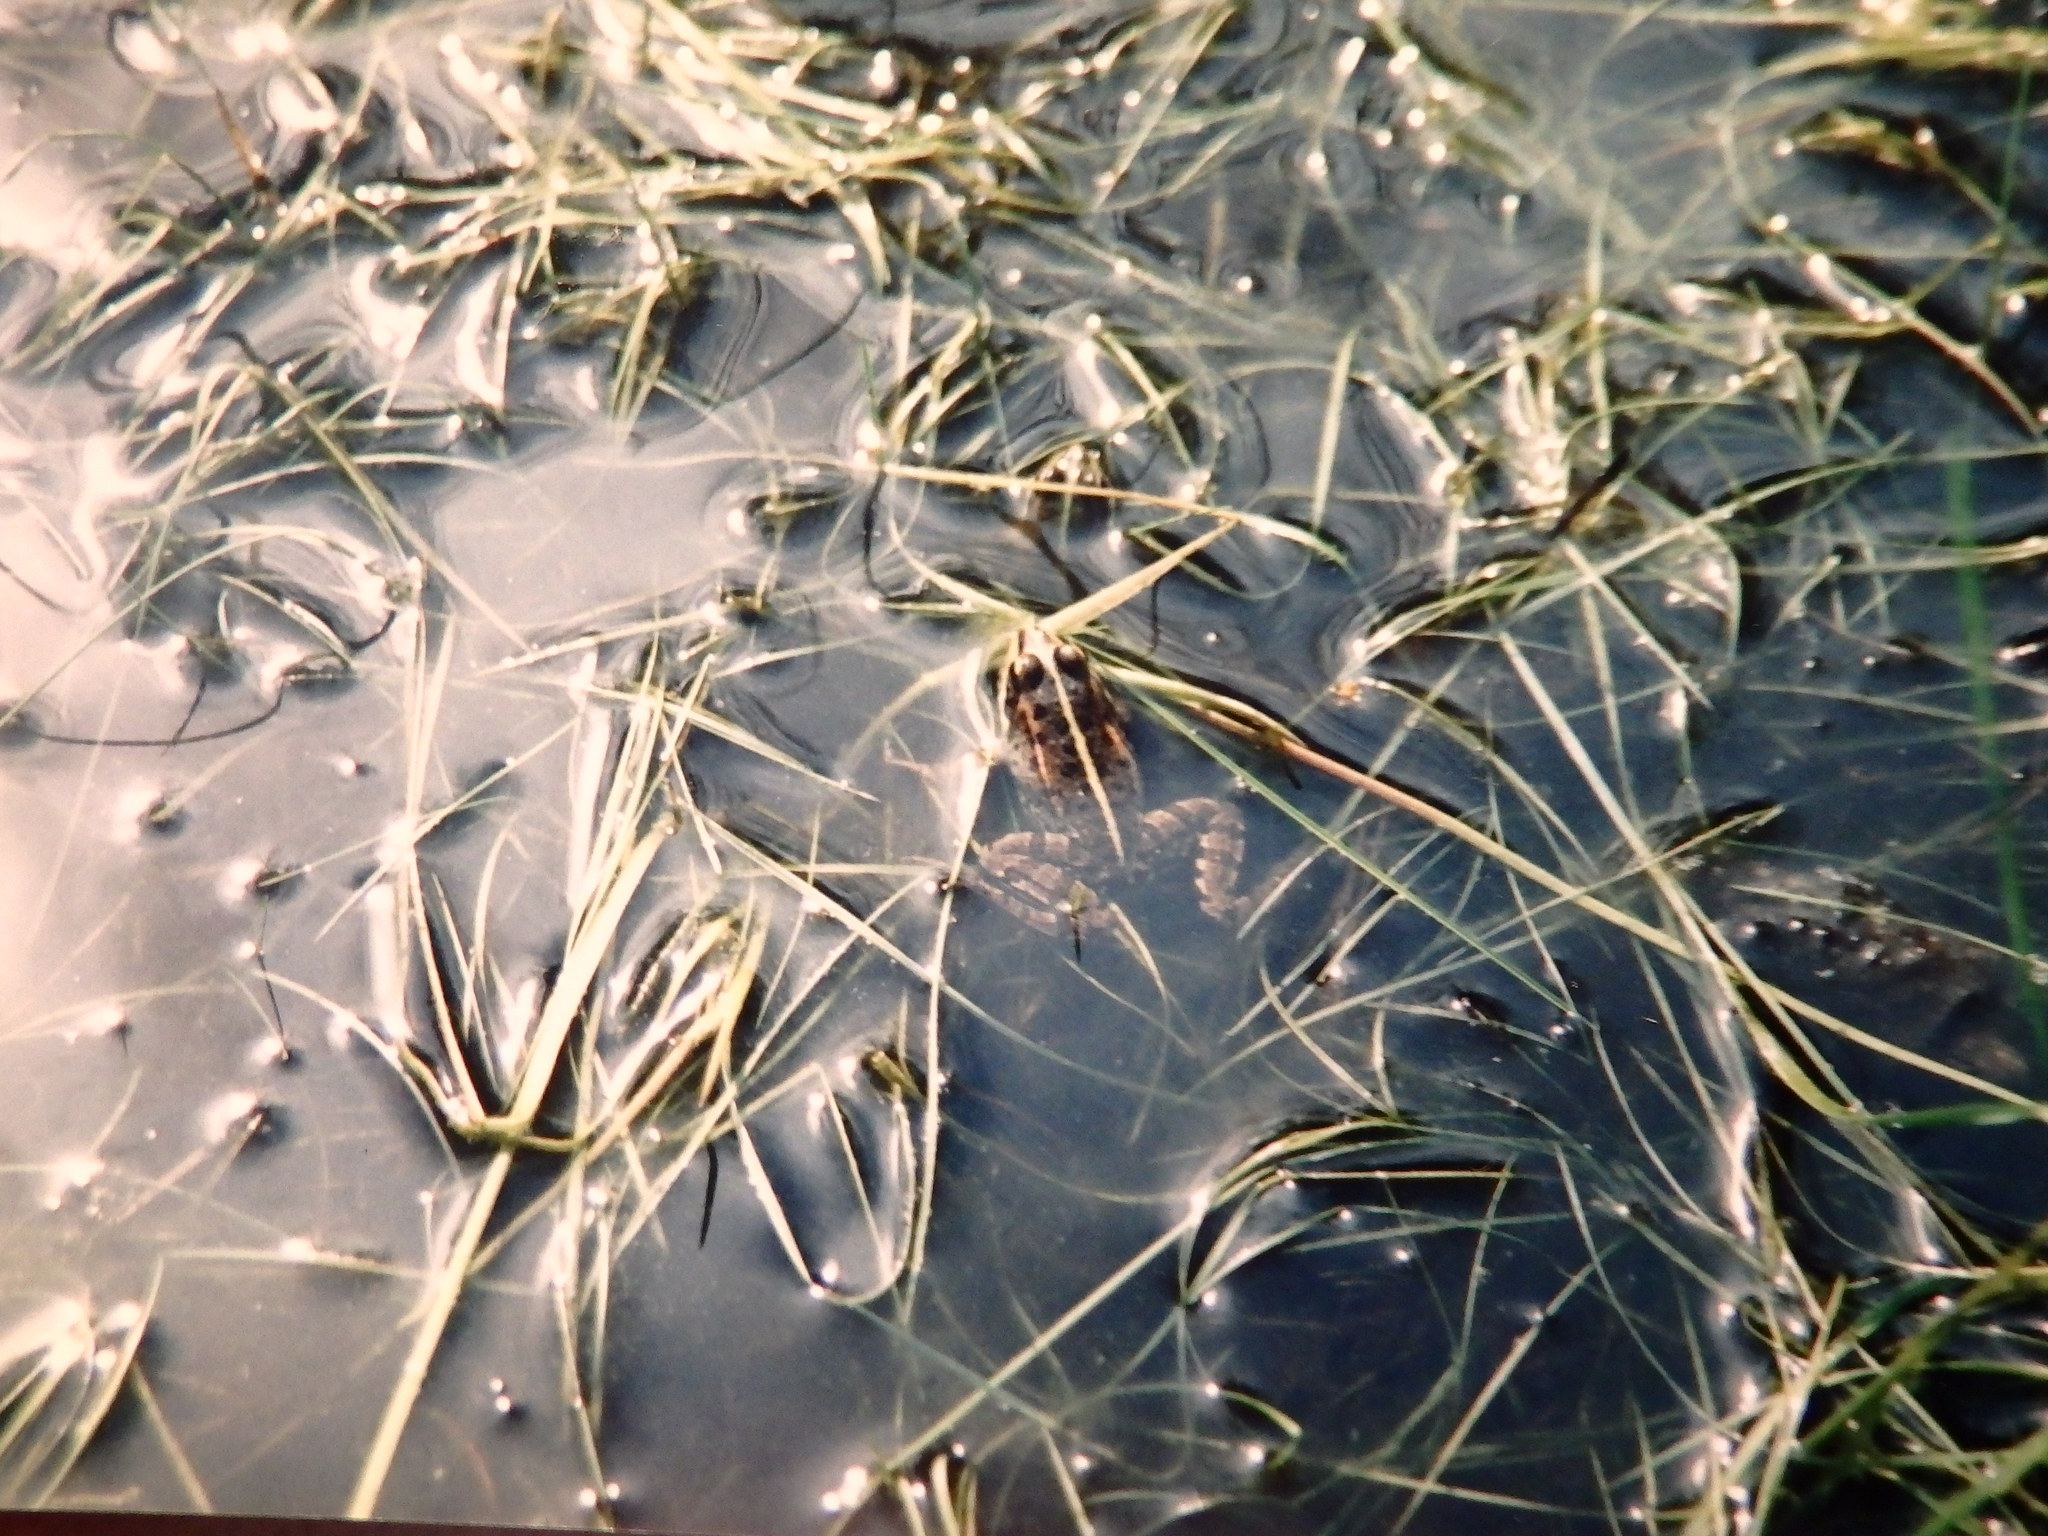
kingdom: Animalia
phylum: Chordata
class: Amphibia
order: Anura
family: Ranidae
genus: Pelophylax
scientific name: Pelophylax perezi
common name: Perez's frog
